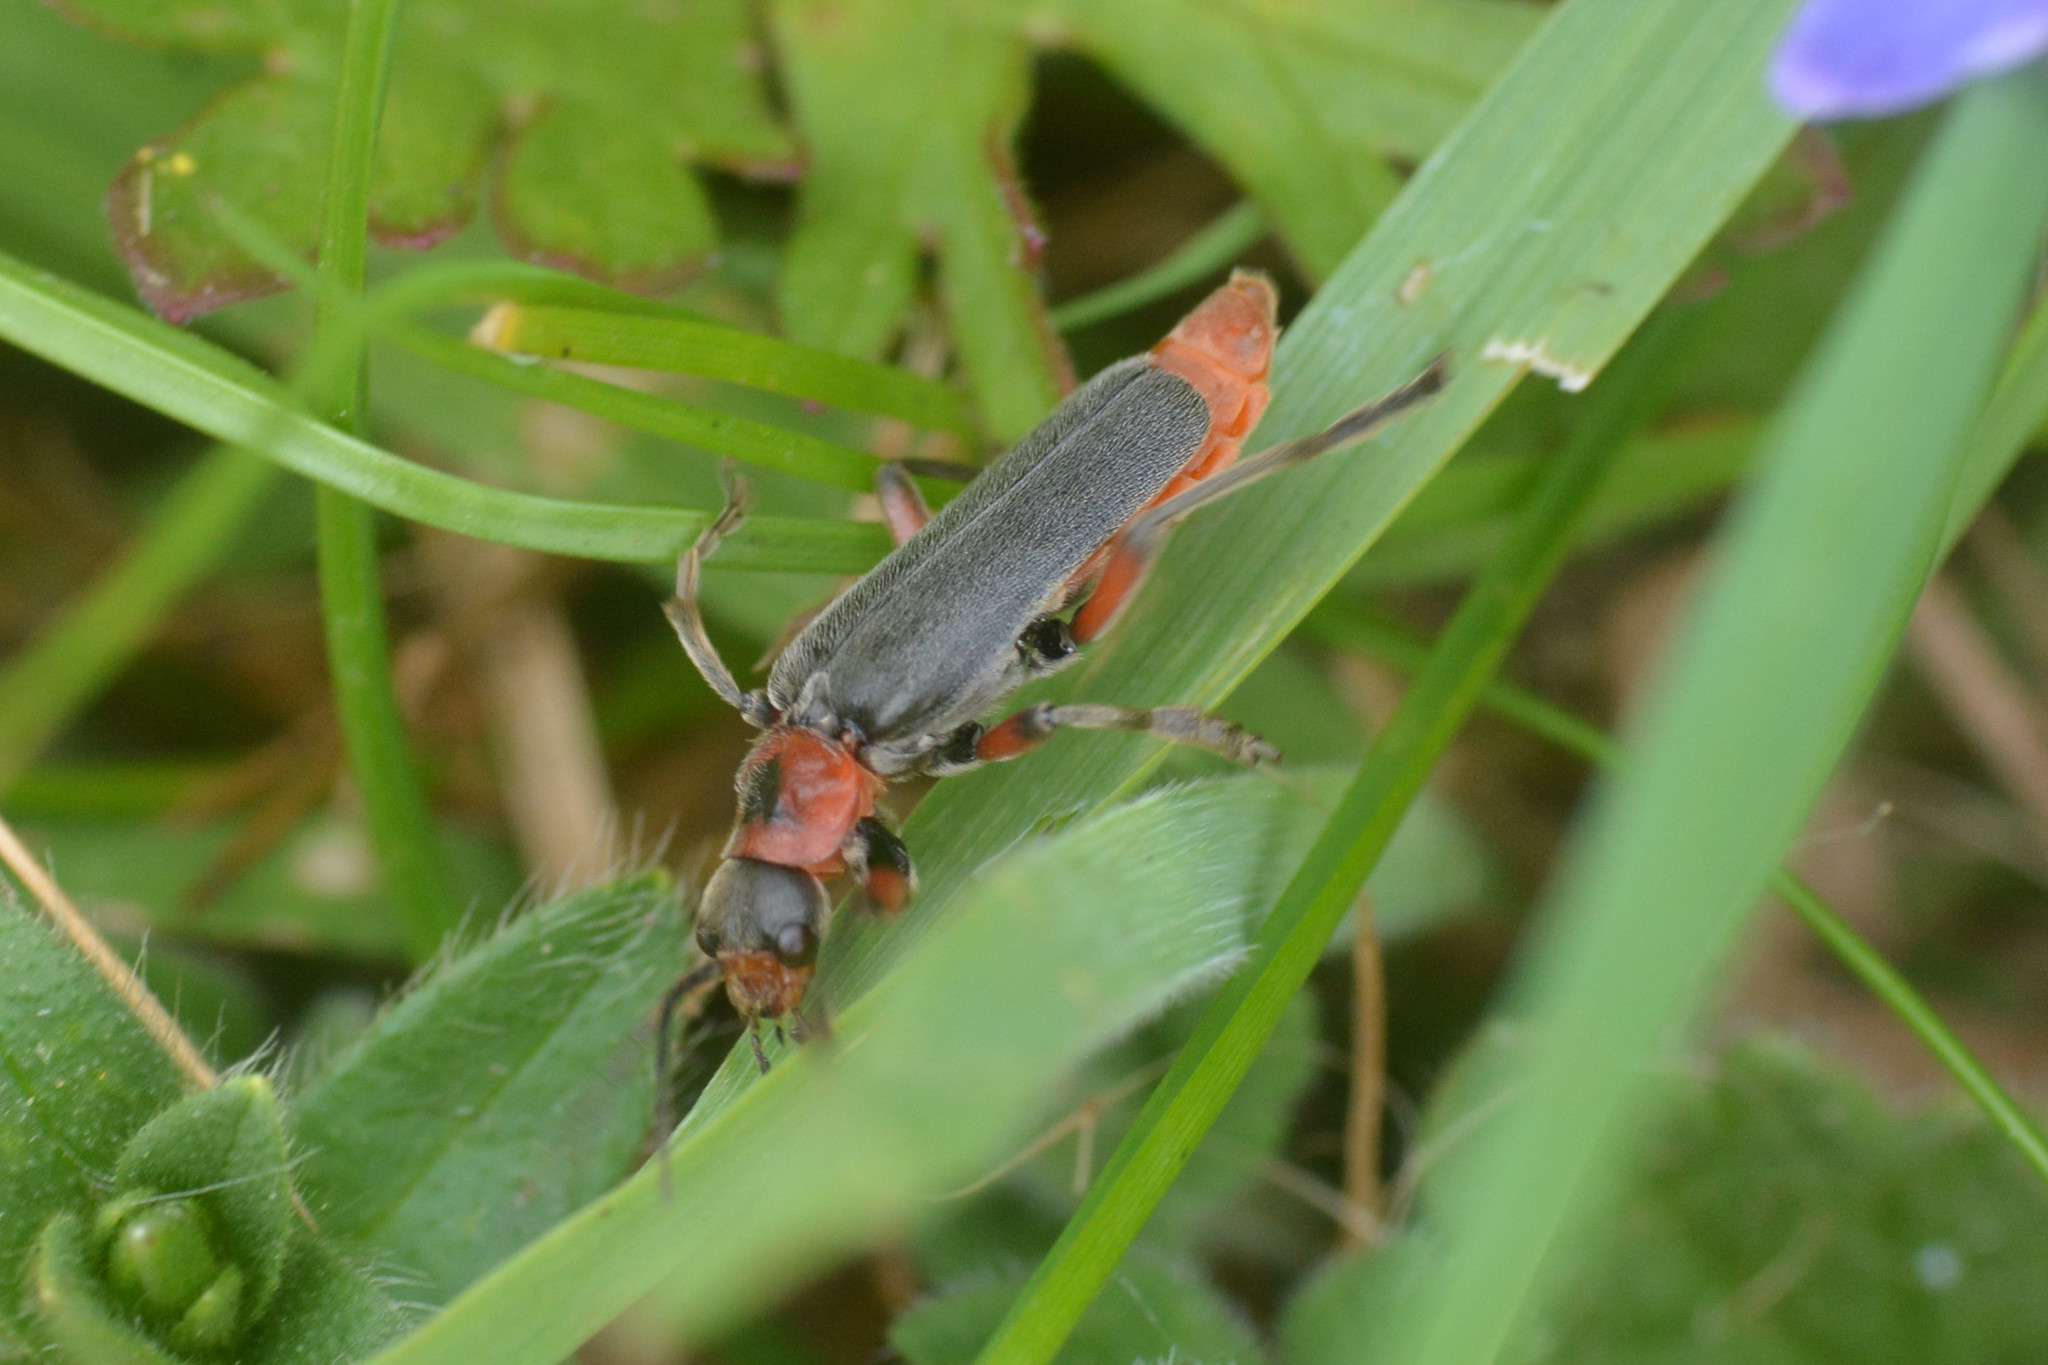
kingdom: Animalia
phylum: Arthropoda
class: Insecta
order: Coleoptera
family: Cantharidae
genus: Cantharis
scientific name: Cantharis rustica
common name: Soldier beetle
